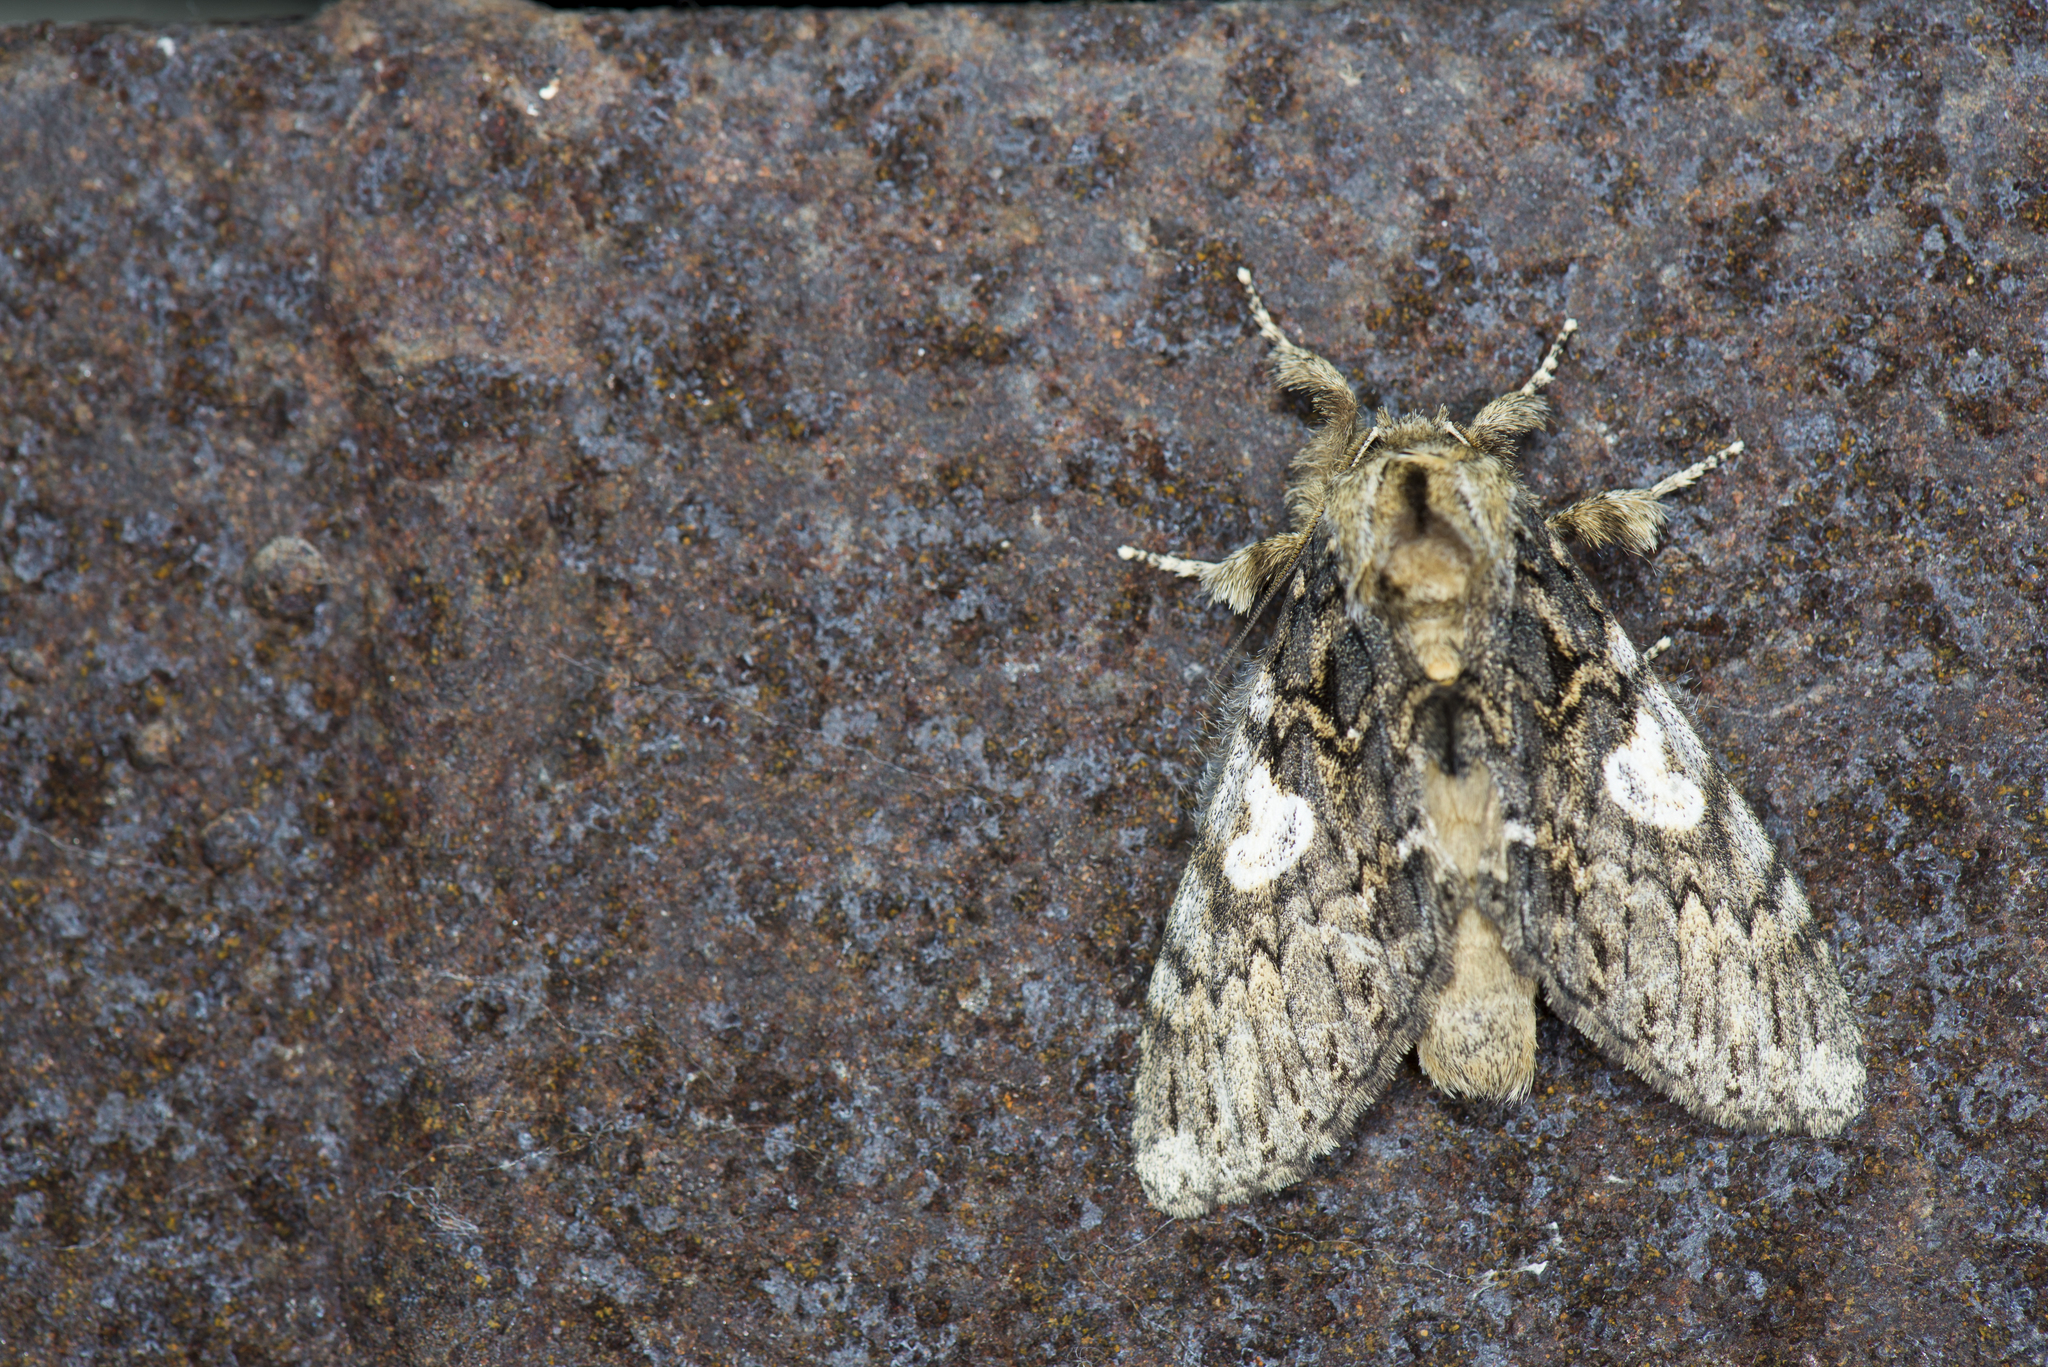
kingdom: Animalia
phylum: Arthropoda
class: Insecta
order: Lepidoptera
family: Notodontidae
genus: Rachiades
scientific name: Rachiades lichenicolor
